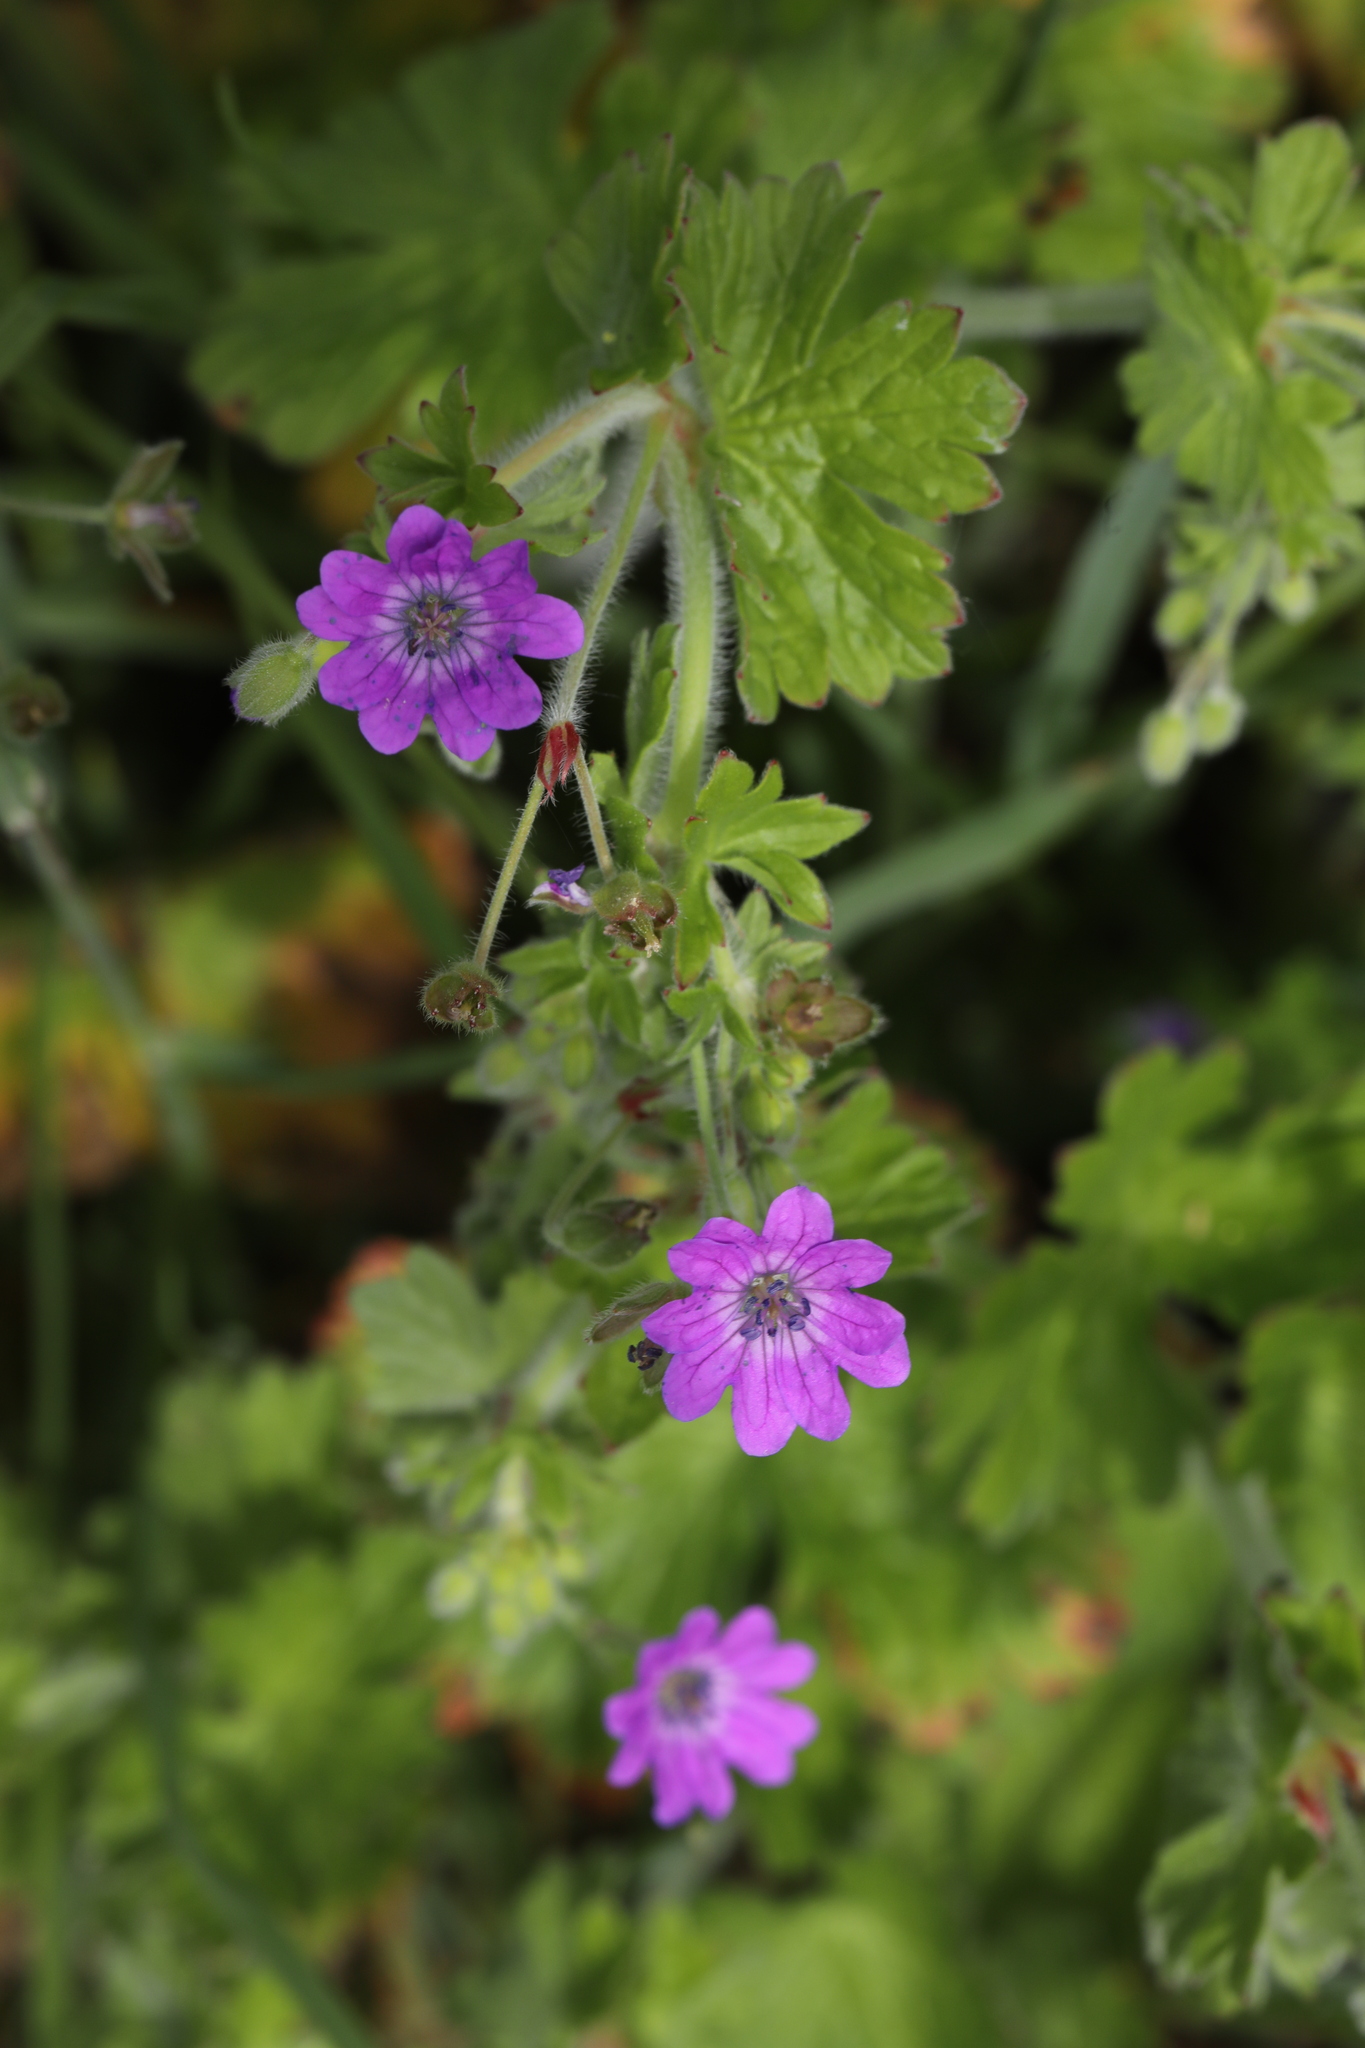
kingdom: Plantae
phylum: Tracheophyta
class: Magnoliopsida
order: Geraniales
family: Geraniaceae
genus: Geranium
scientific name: Geranium pyrenaicum
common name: Hedgerow crane's-bill
